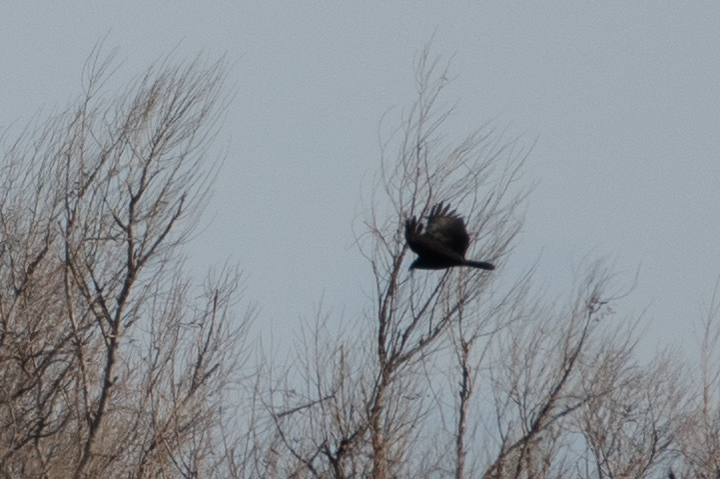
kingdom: Animalia
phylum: Chordata
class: Aves
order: Accipitriformes
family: Cathartidae
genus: Cathartes
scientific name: Cathartes aura
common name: Turkey vulture
